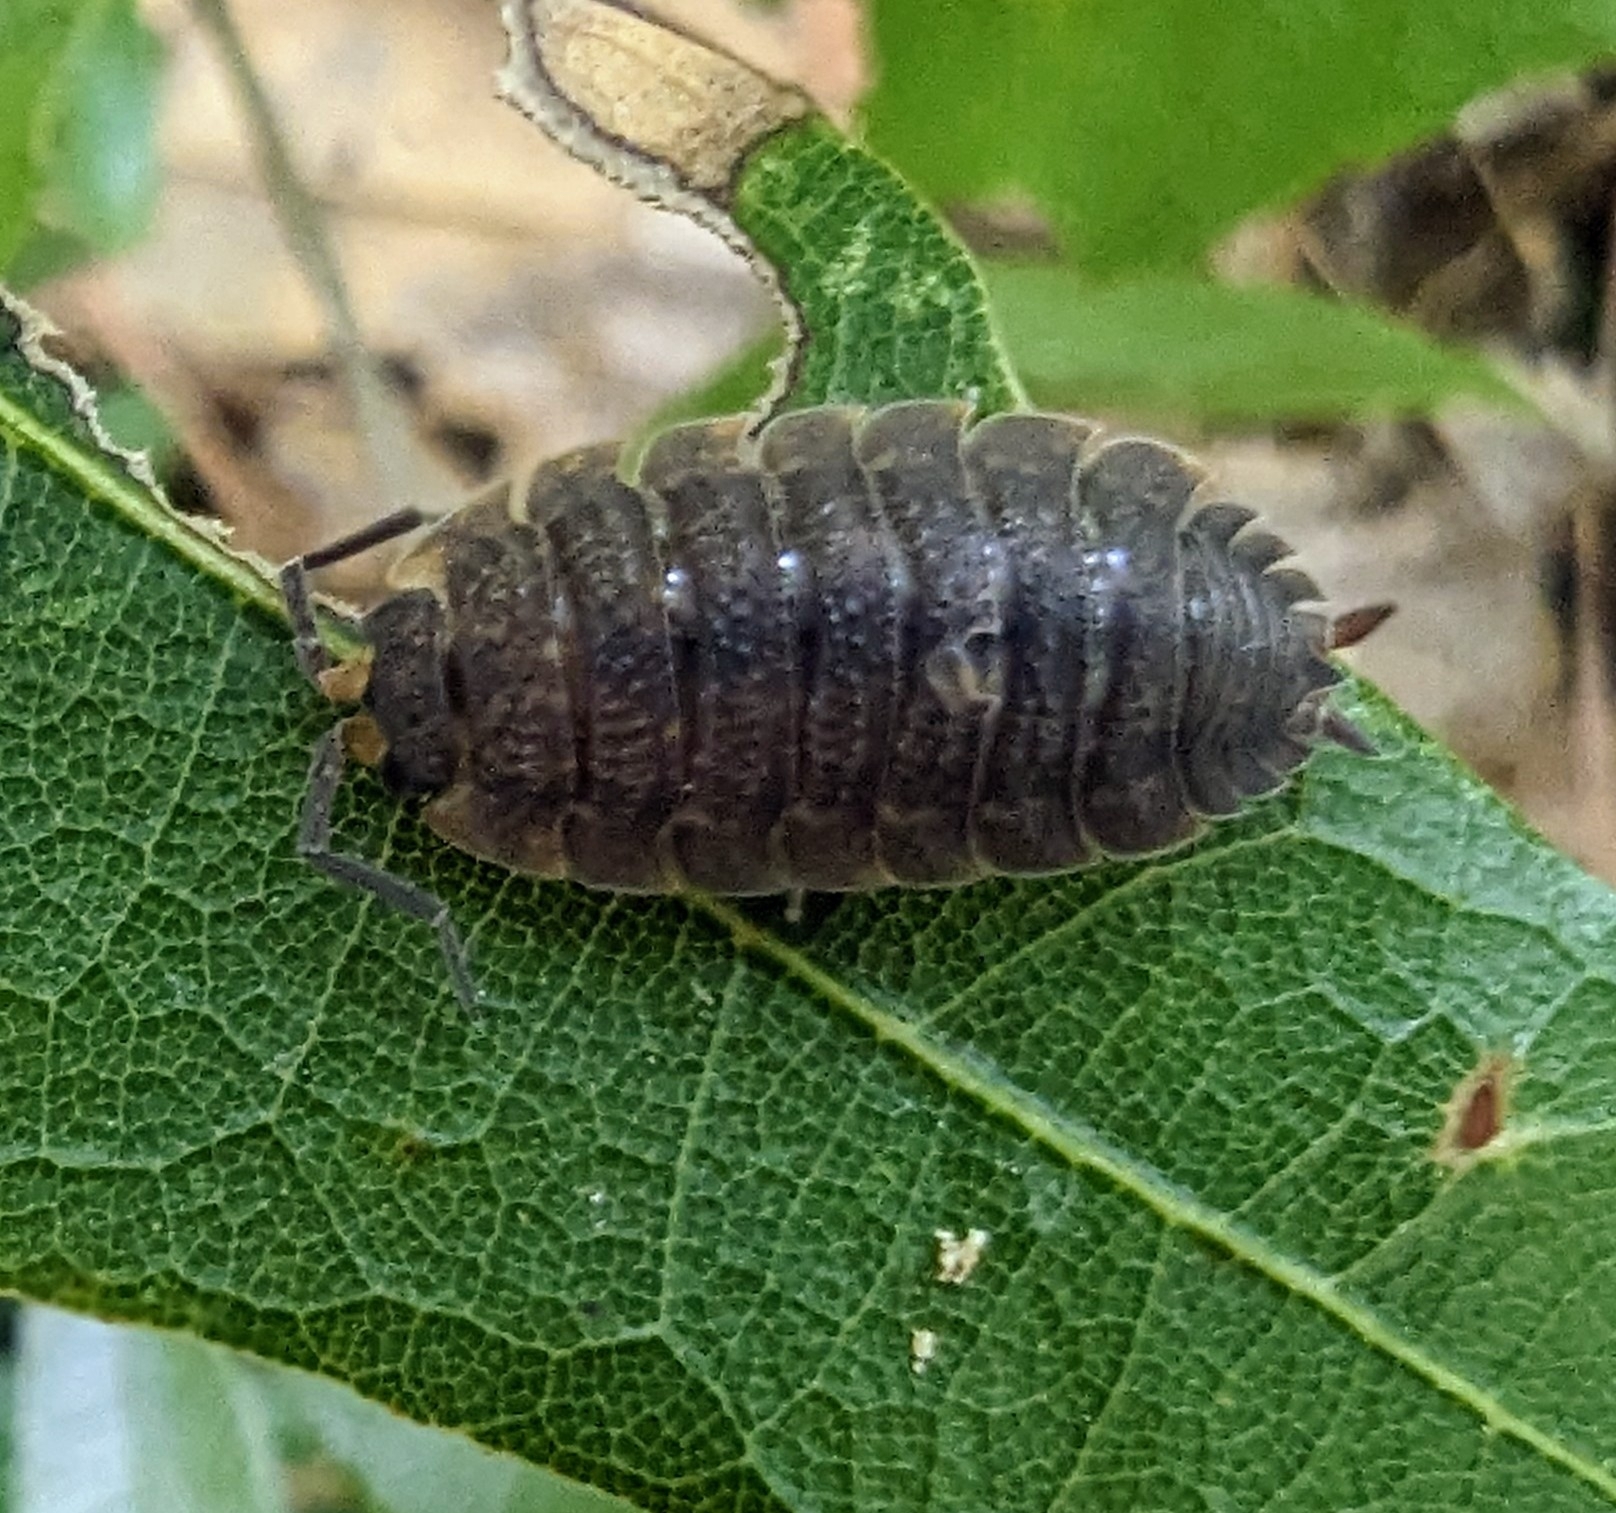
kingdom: Animalia
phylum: Arthropoda
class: Malacostraca
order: Isopoda
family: Porcellionidae
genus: Porcellio
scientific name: Porcellio scaber
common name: Common rough woodlouse
